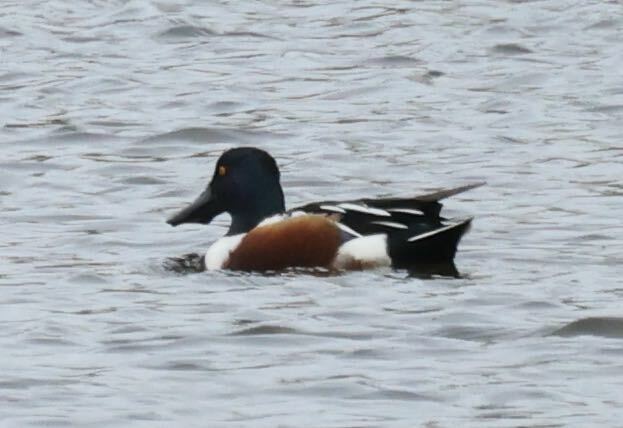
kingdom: Animalia
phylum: Chordata
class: Aves
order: Anseriformes
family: Anatidae
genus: Spatula
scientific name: Spatula clypeata
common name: Northern shoveler
